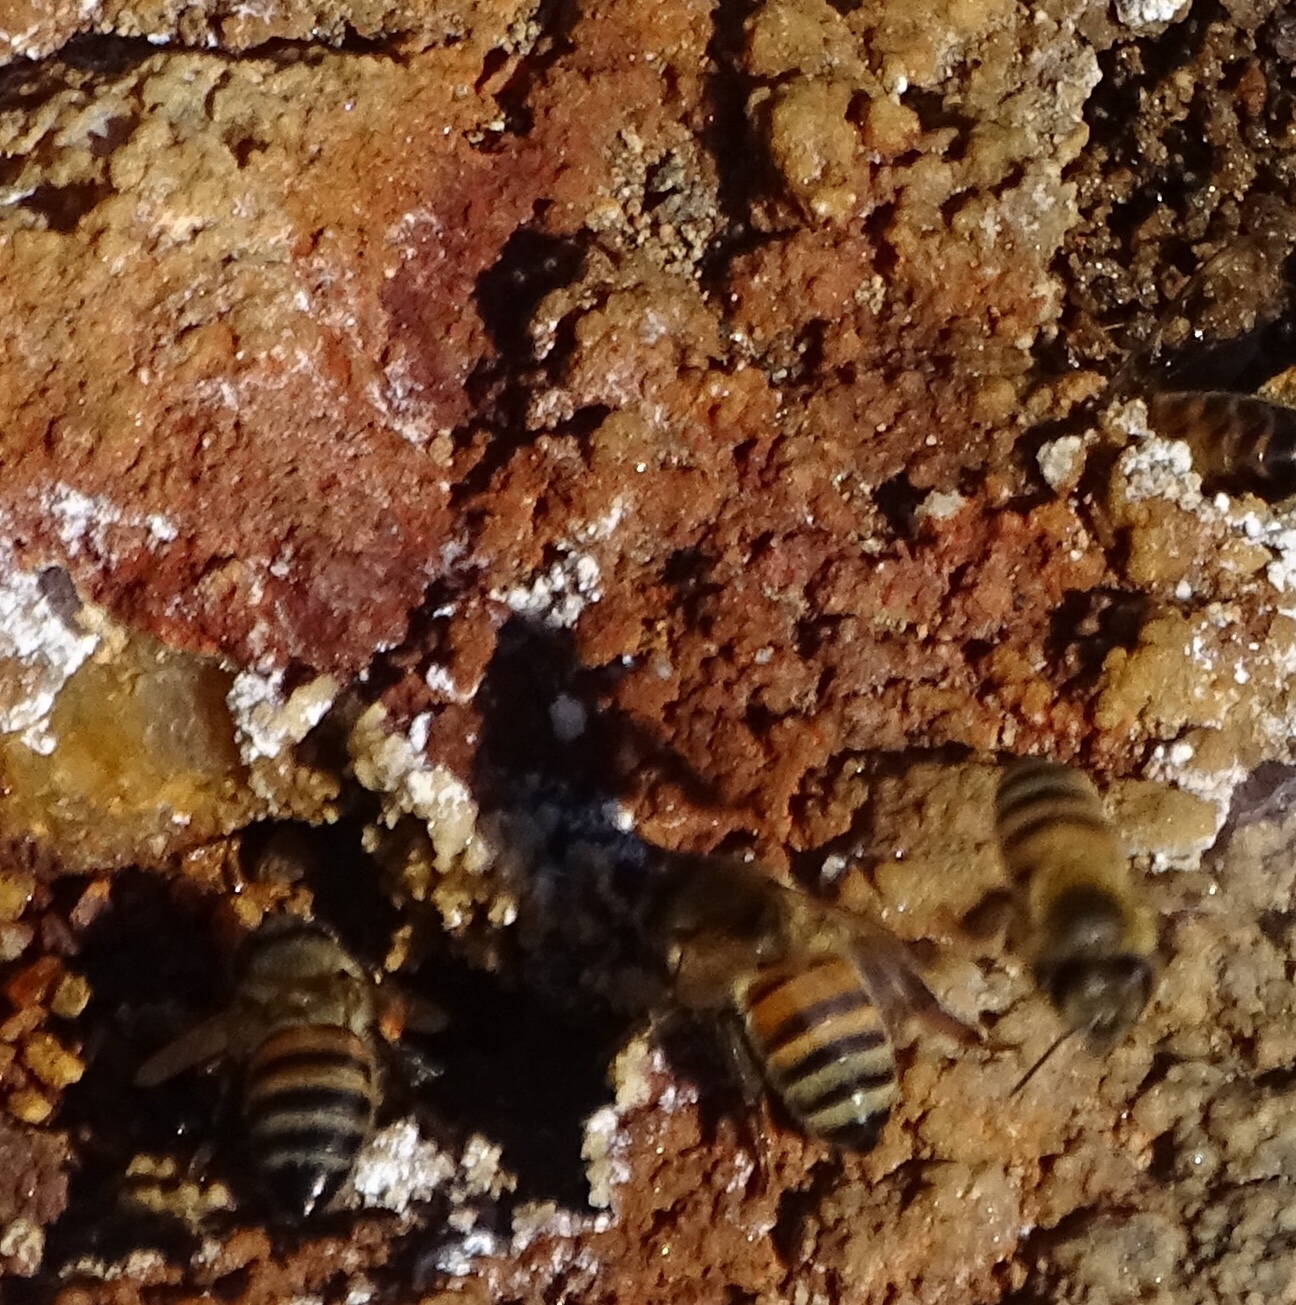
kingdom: Animalia
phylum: Arthropoda
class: Insecta
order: Hymenoptera
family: Apidae
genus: Apis
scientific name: Apis mellifera
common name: Honey bee
